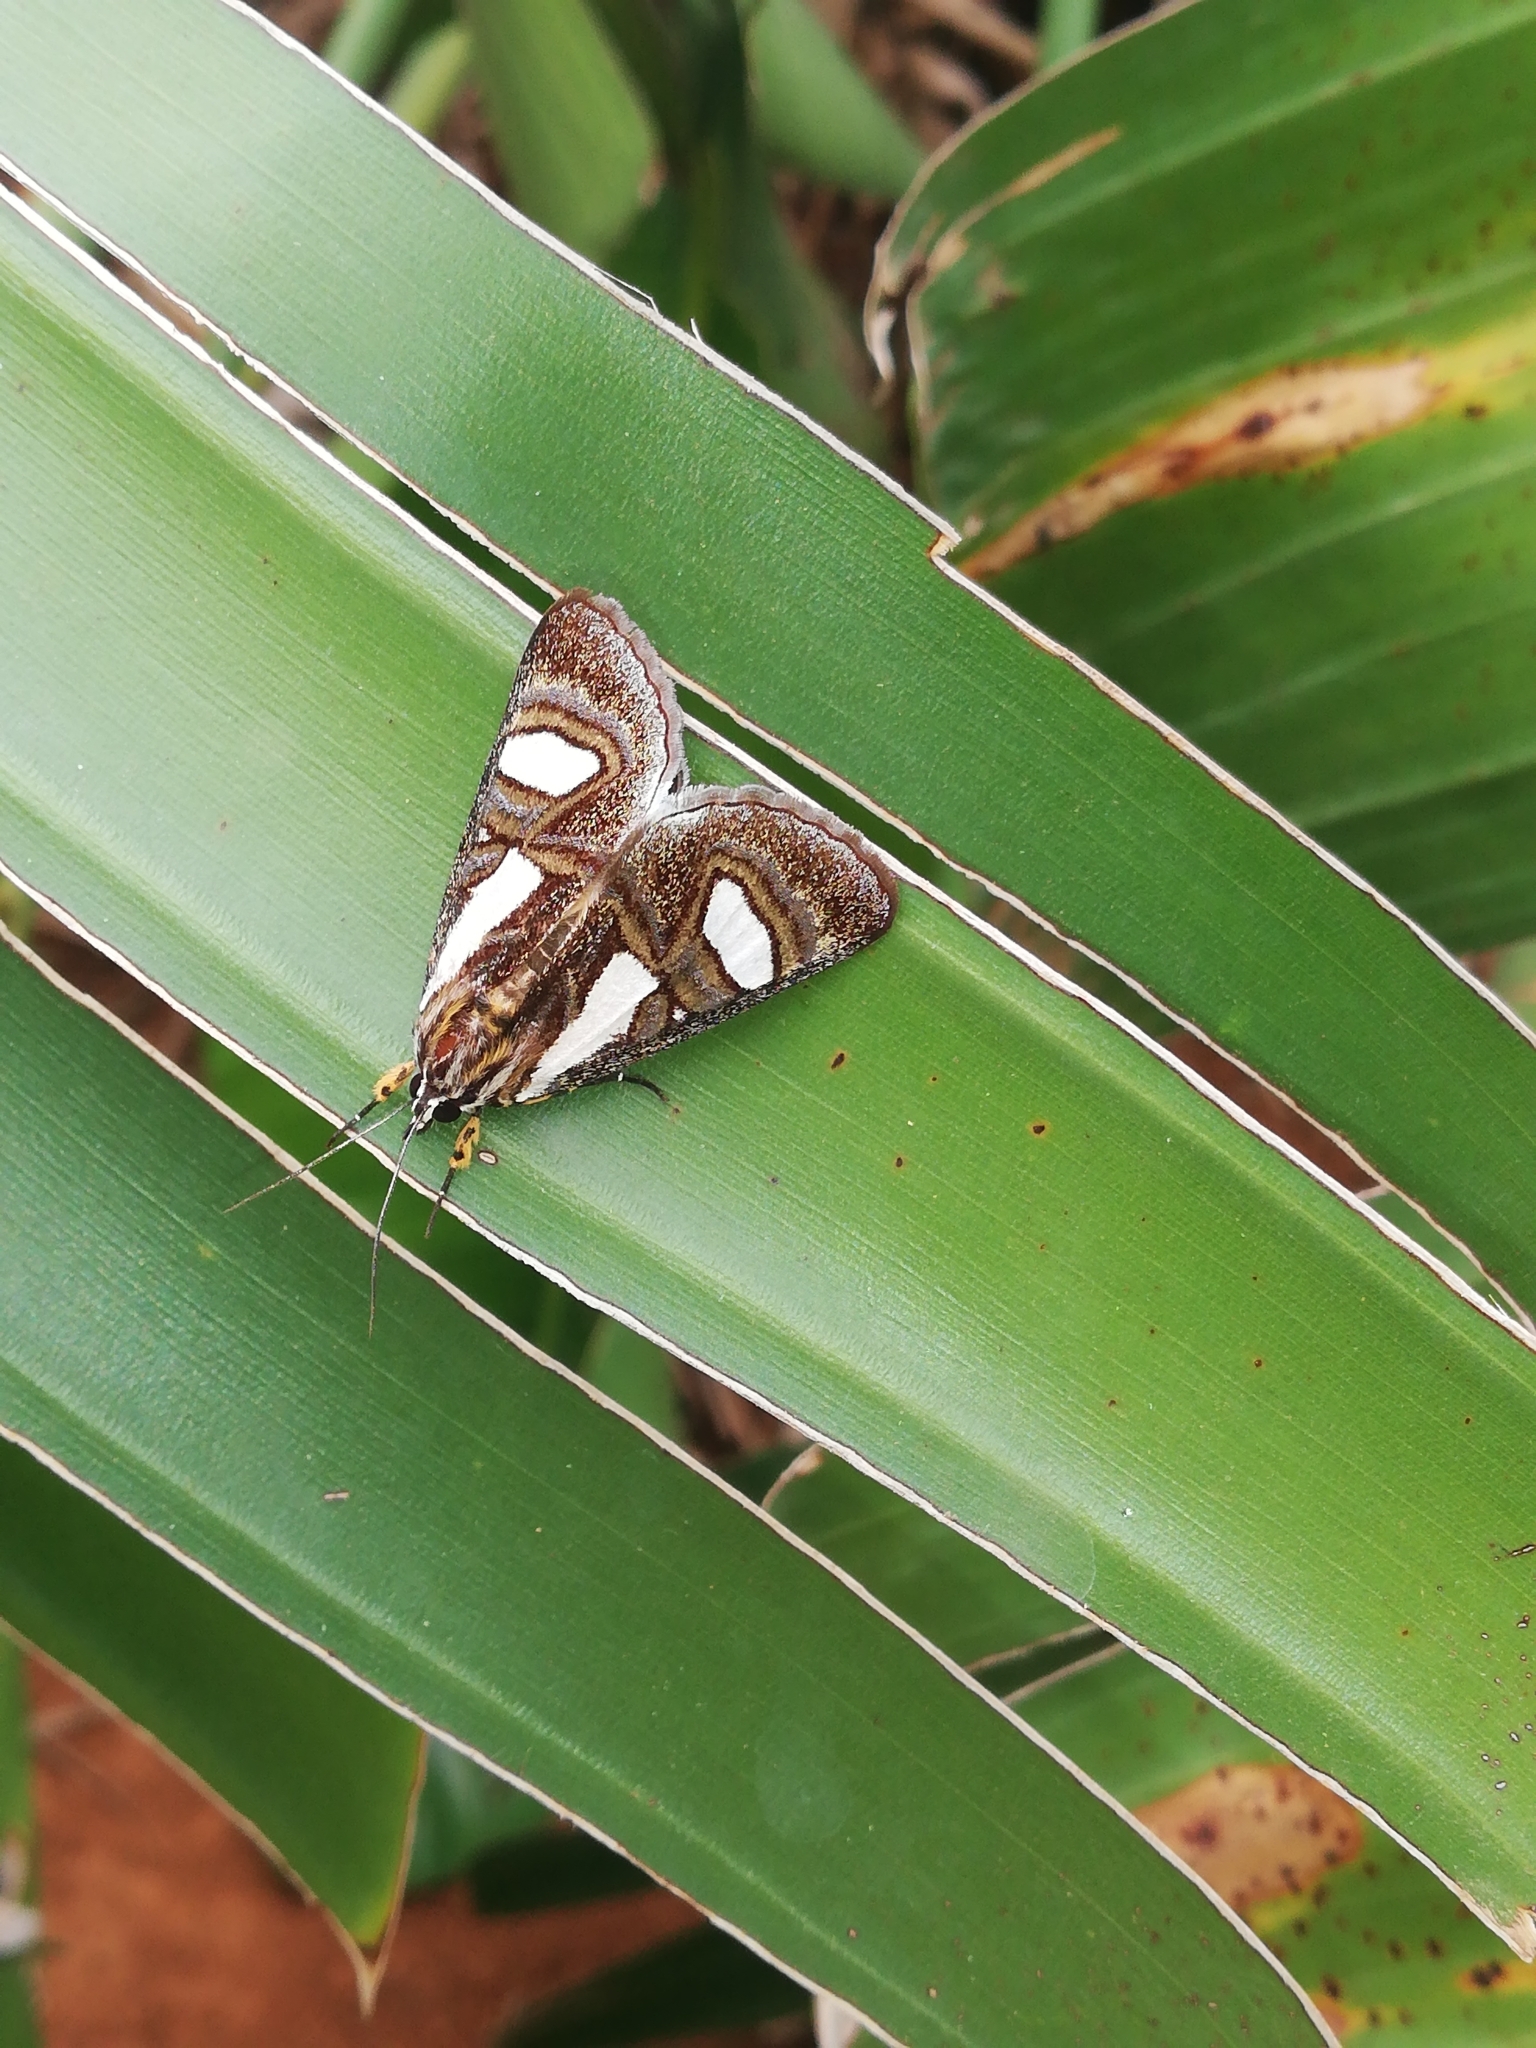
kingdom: Animalia
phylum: Arthropoda
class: Insecta
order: Lepidoptera
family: Noctuidae
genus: Agoma
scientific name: Agoma trimenii
